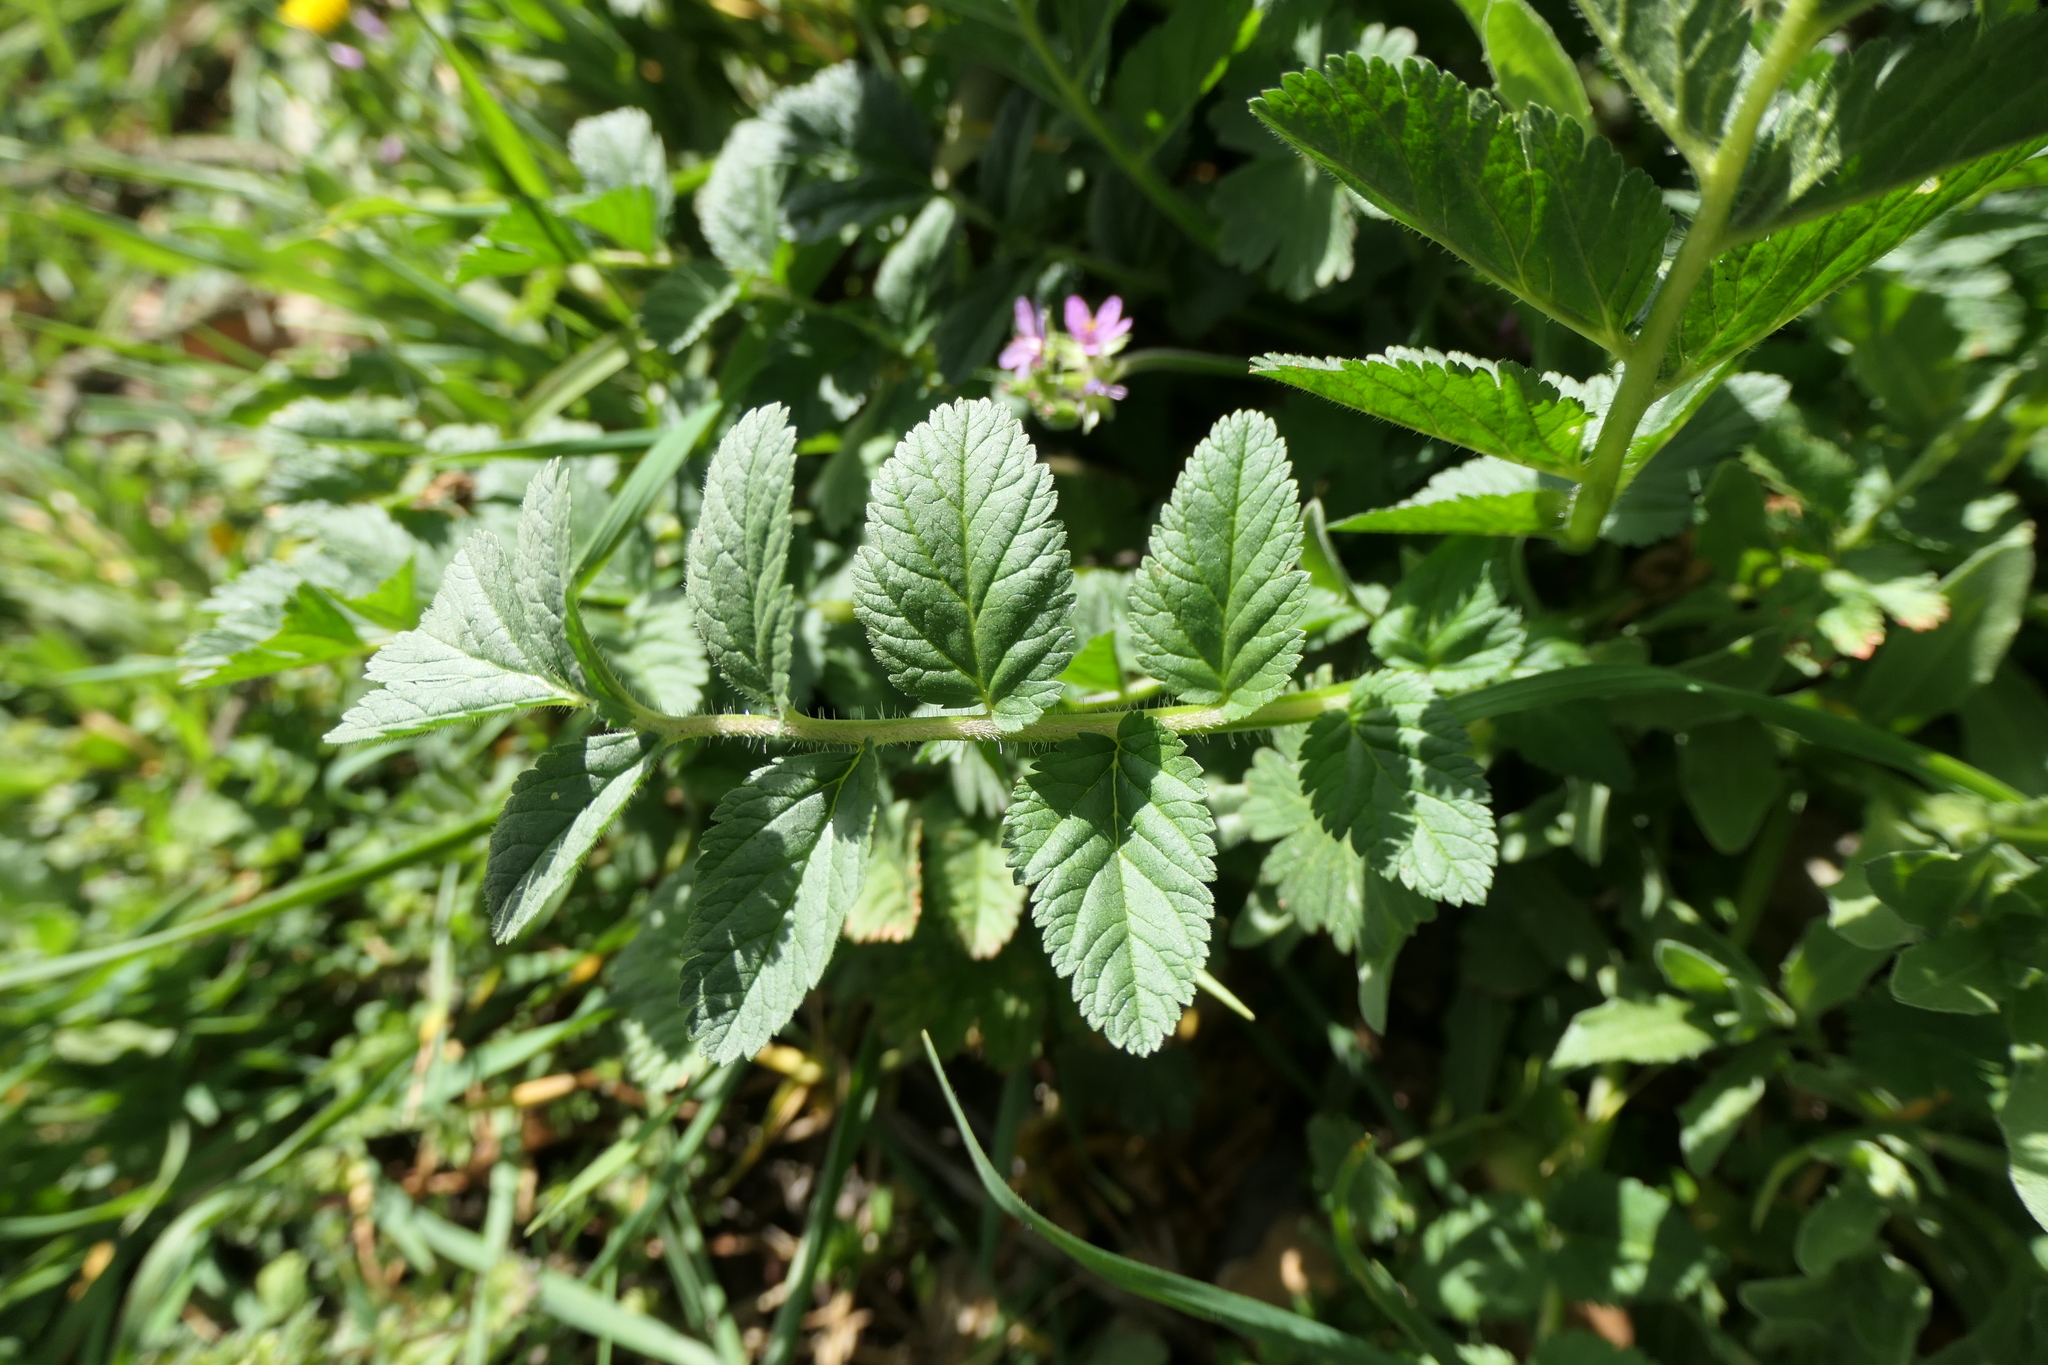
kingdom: Plantae
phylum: Tracheophyta
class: Magnoliopsida
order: Geraniales
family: Geraniaceae
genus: Erodium
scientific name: Erodium moschatum
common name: Musk stork's-bill
